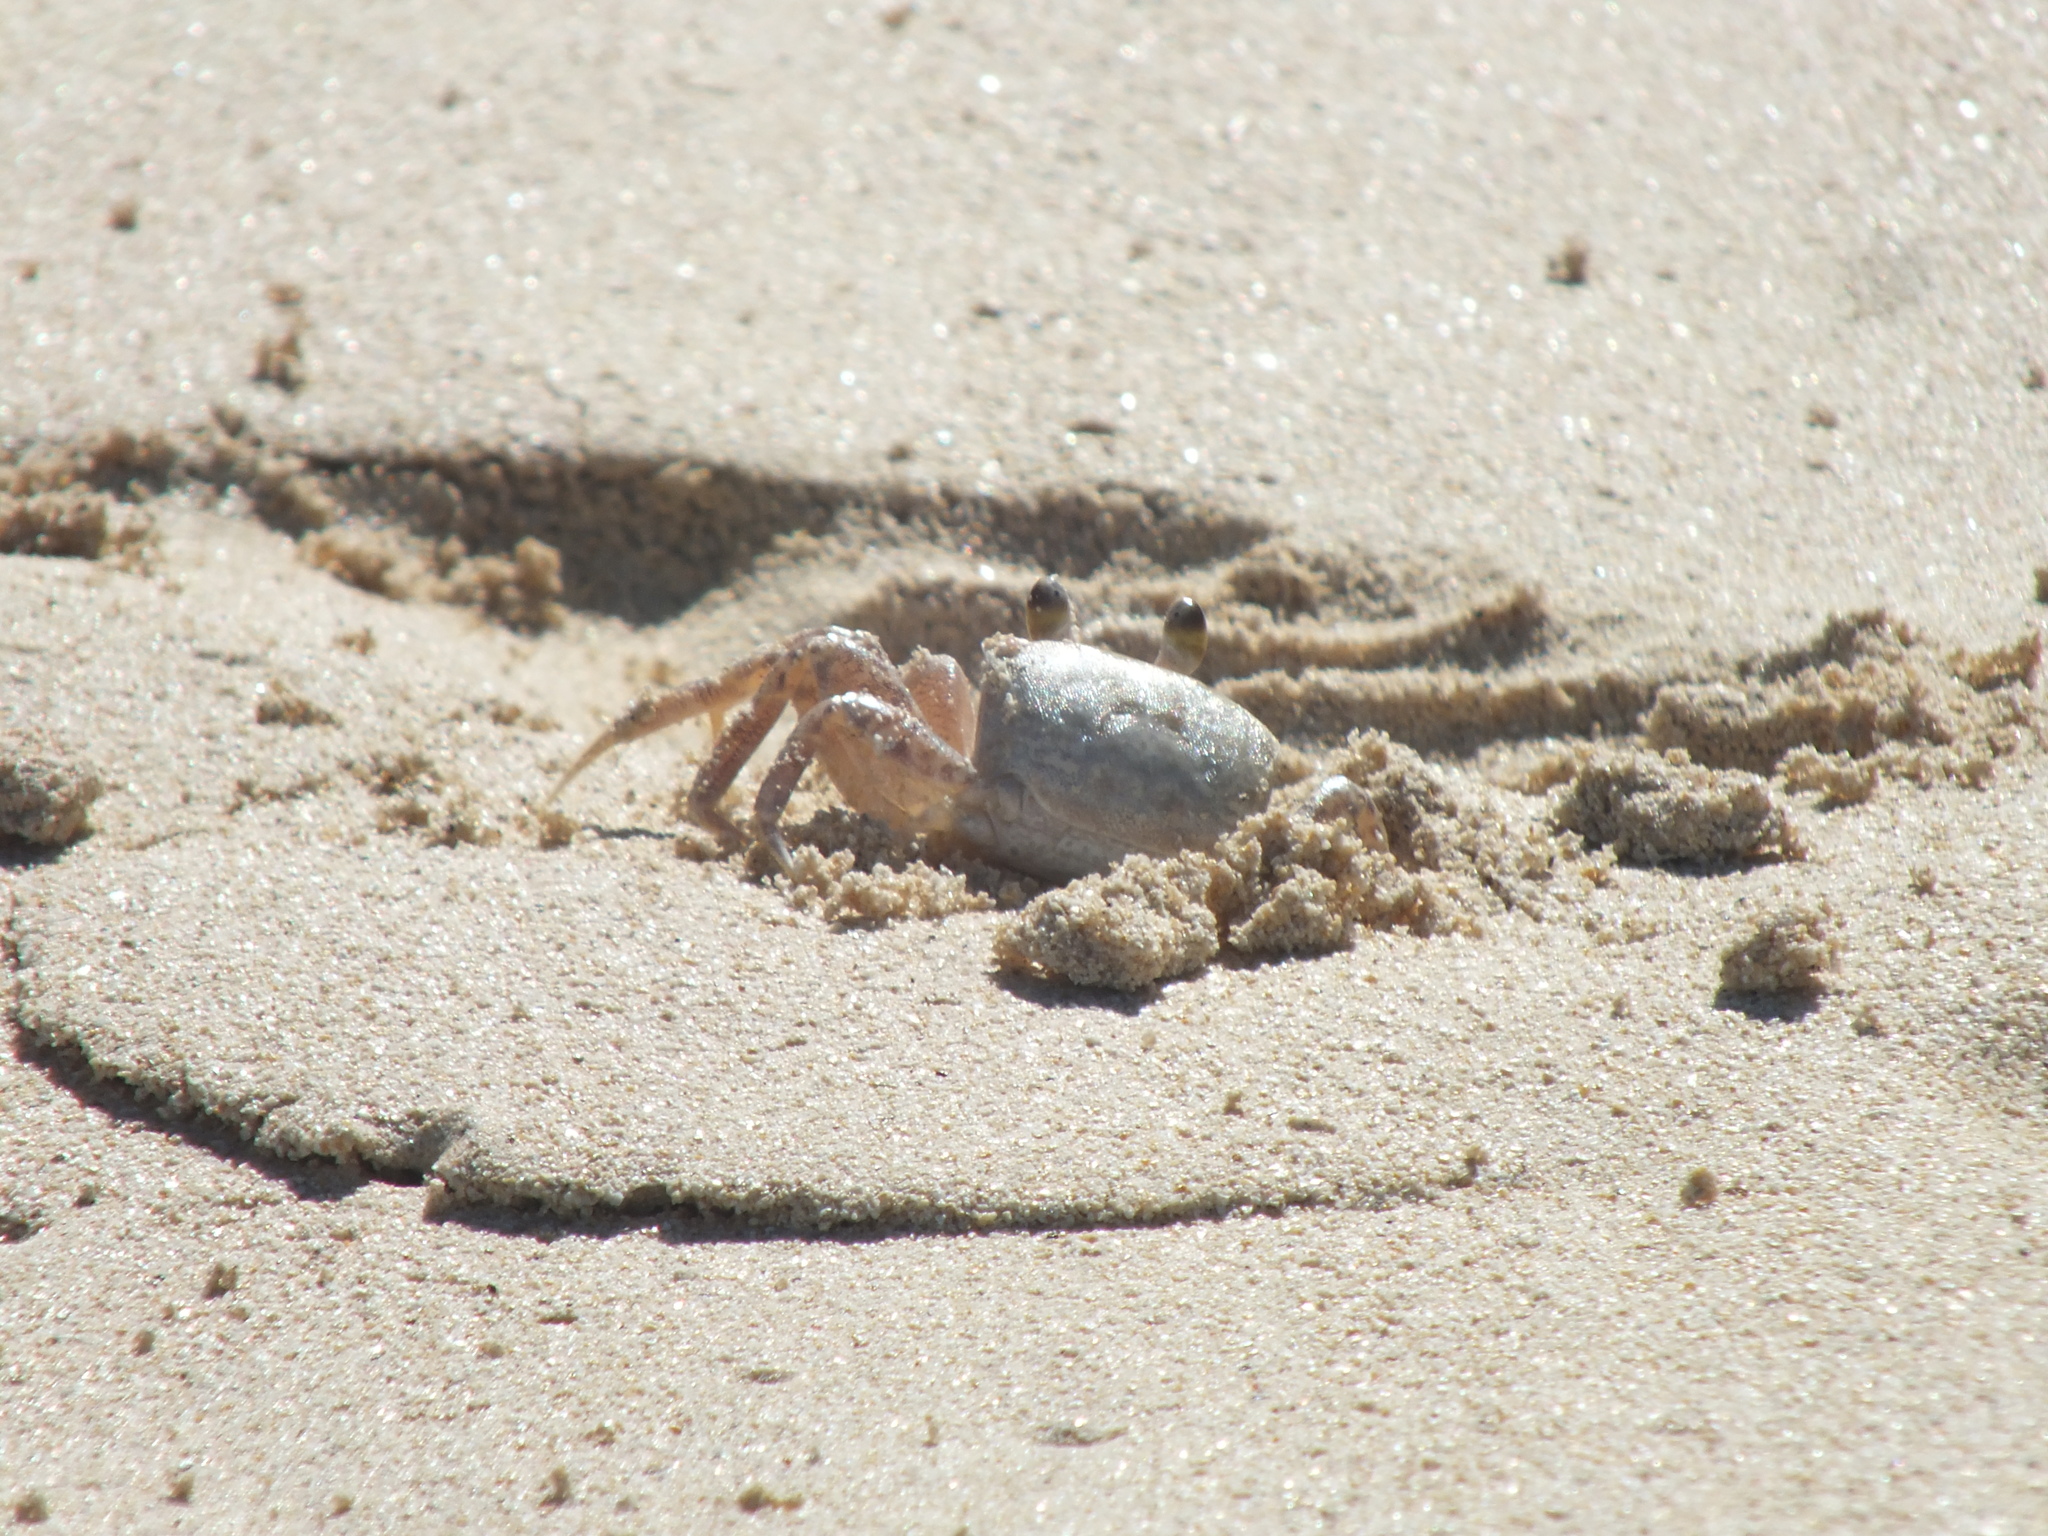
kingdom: Animalia
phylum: Arthropoda
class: Malacostraca
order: Decapoda
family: Ocypodidae
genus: Ocypode
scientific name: Ocypode pallidula
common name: Pallid ghost crab
